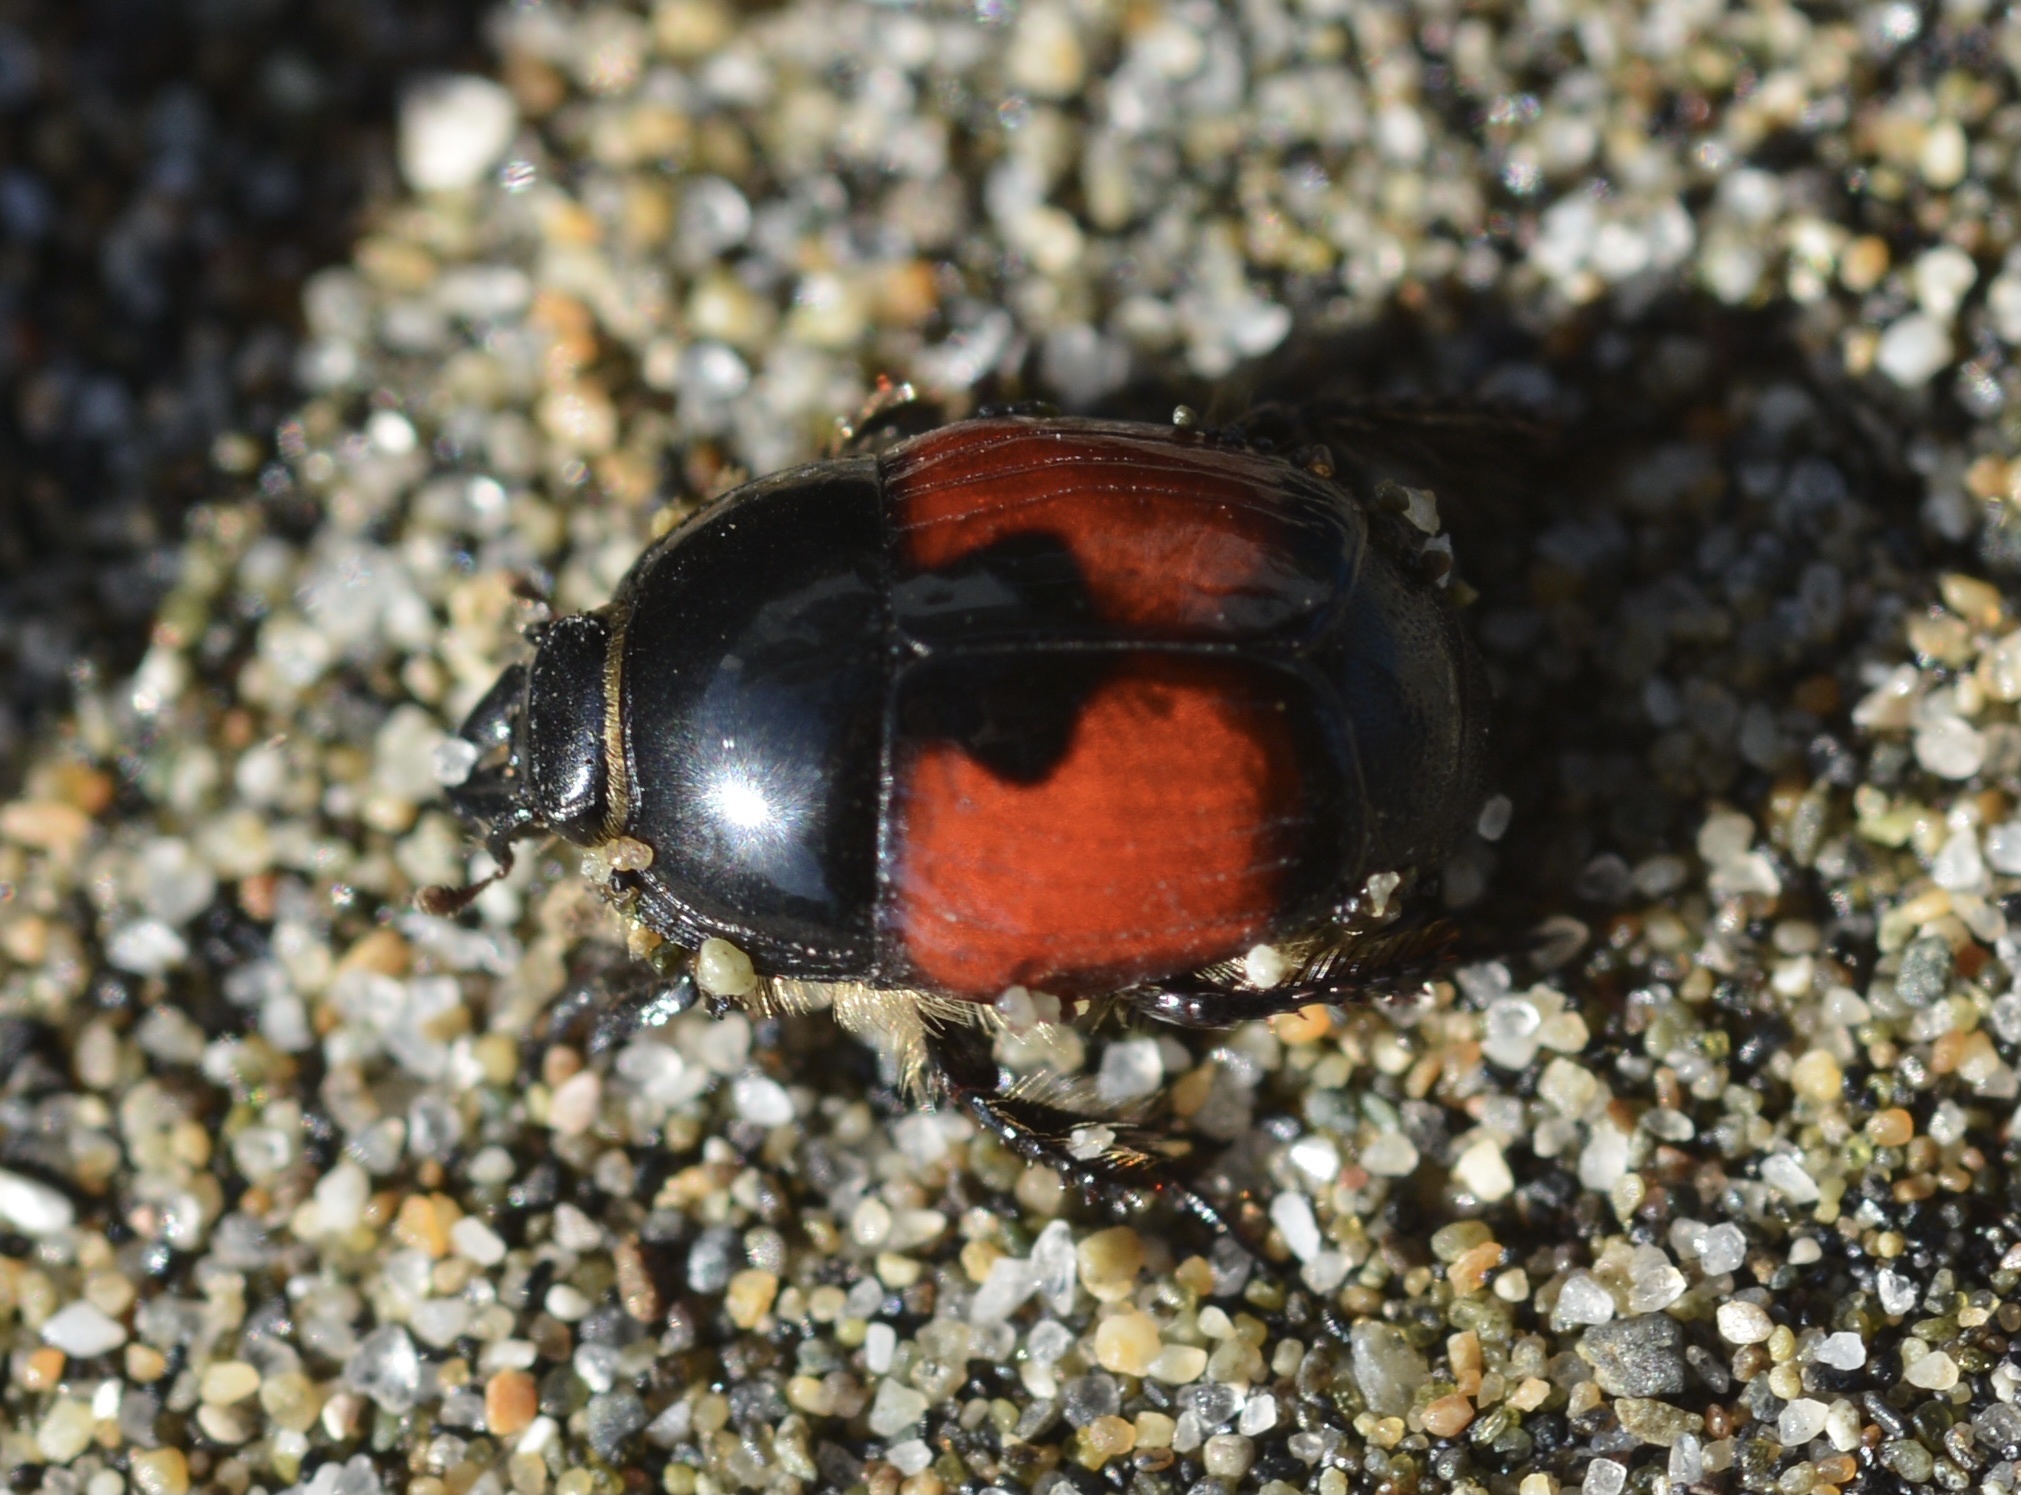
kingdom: Animalia
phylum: Arthropoda
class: Insecta
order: Coleoptera
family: Histeridae
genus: Spilodiscus
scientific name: Spilodiscus sellatus
